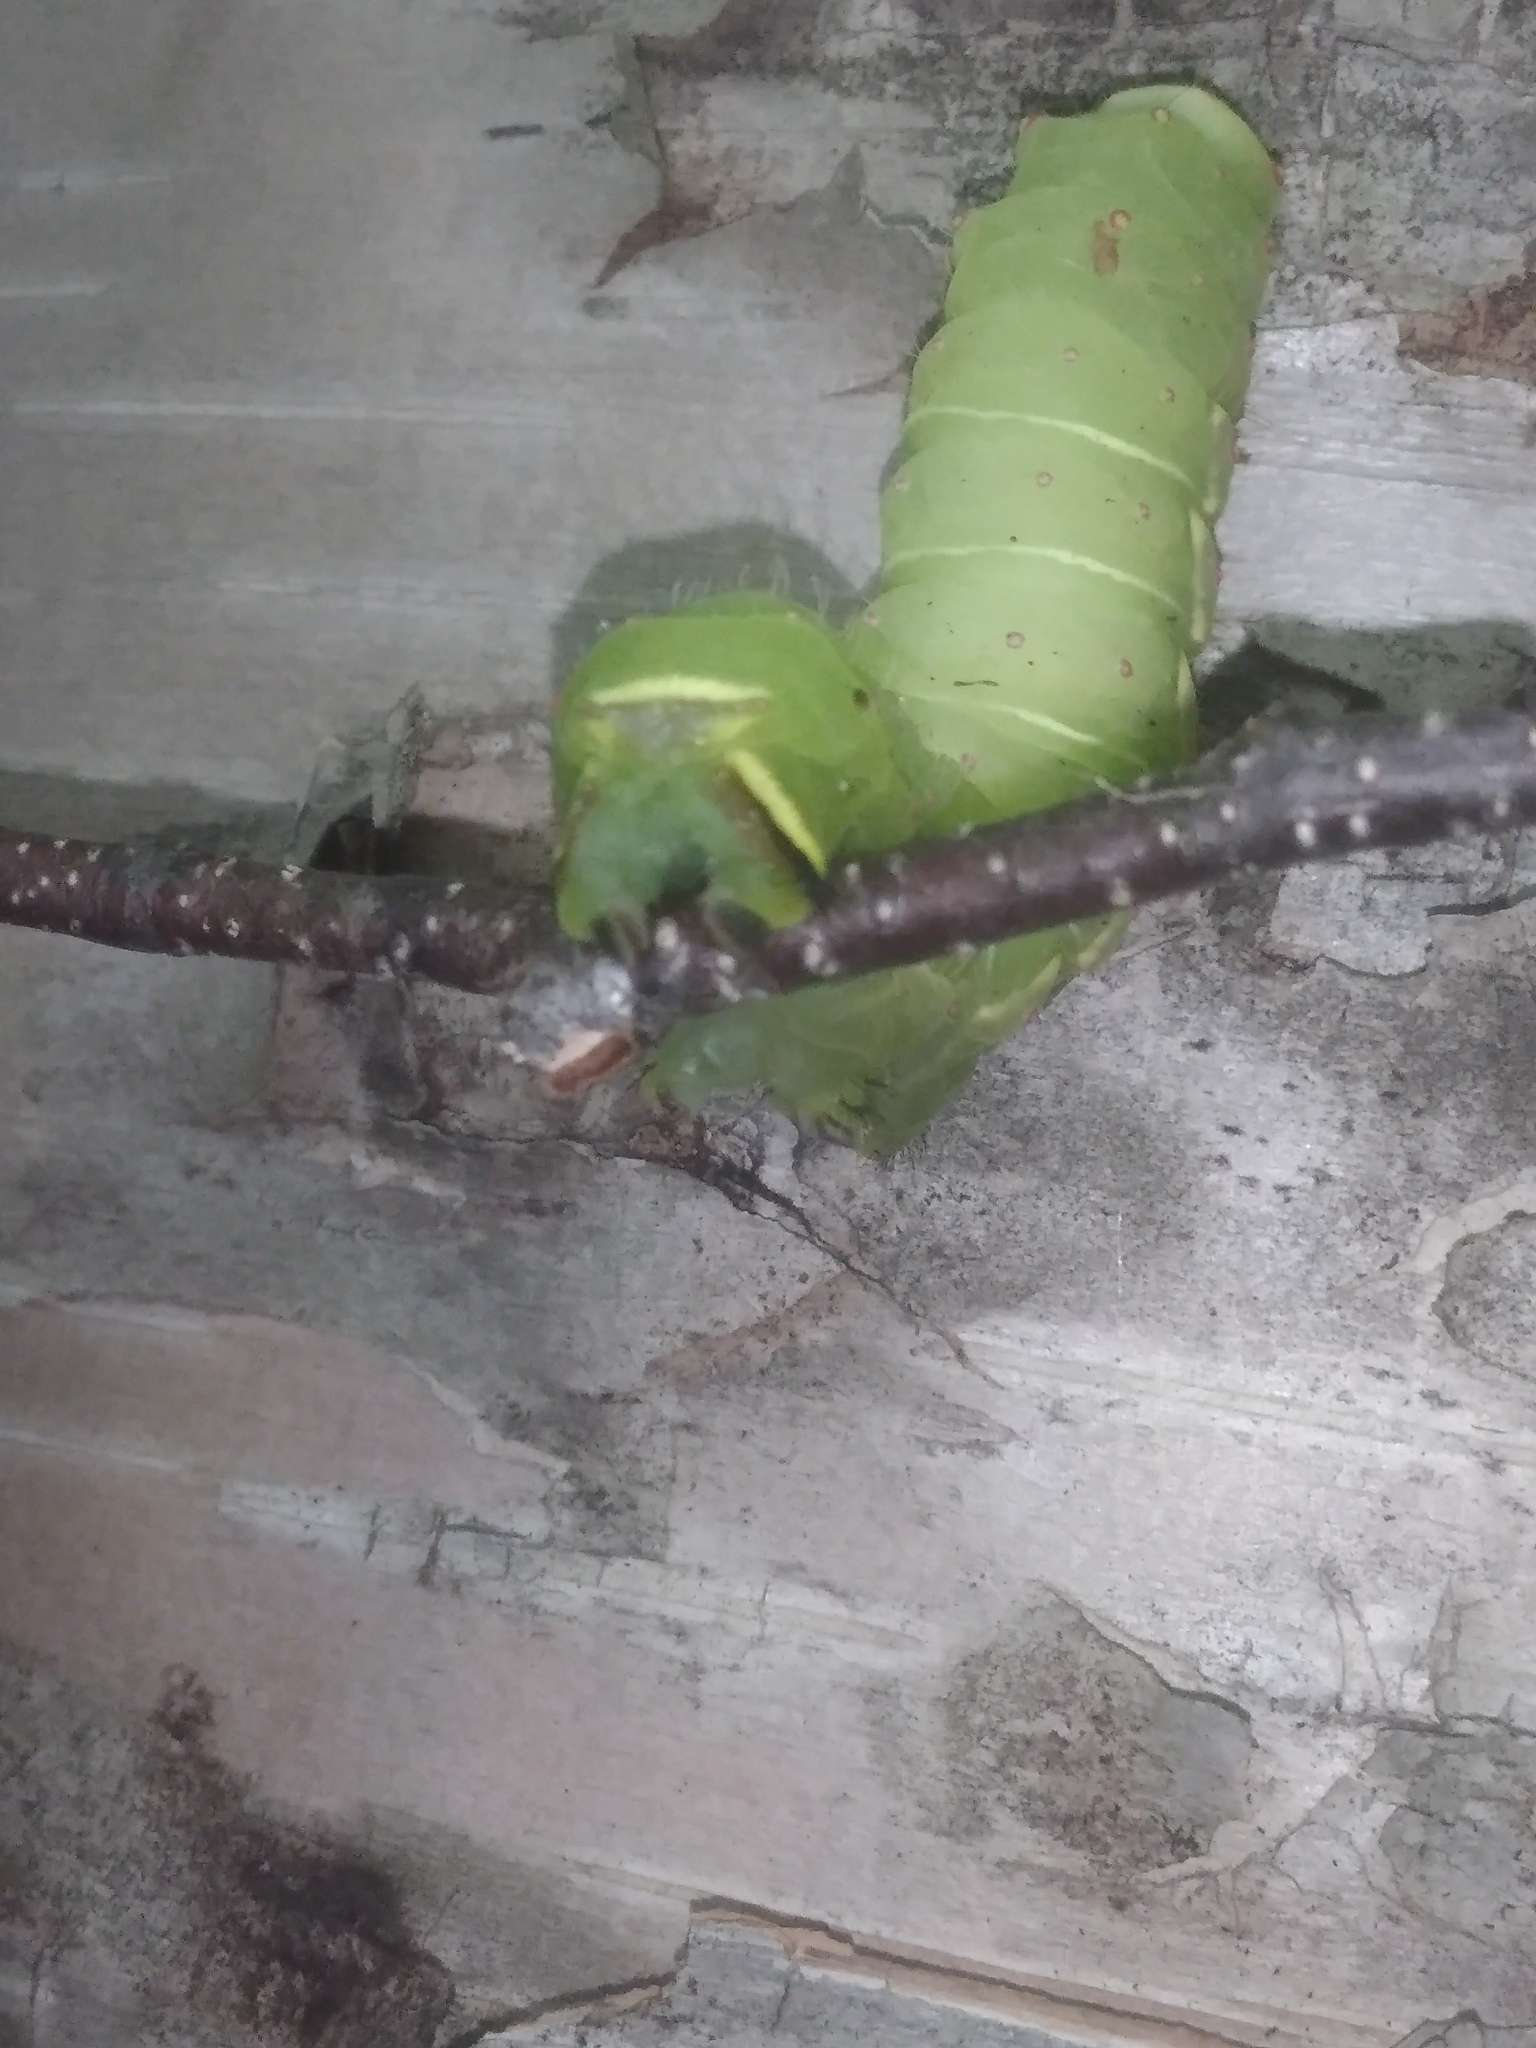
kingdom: Animalia
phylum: Arthropoda
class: Insecta
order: Lepidoptera
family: Saturniidae
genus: Actias
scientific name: Actias luna
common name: Luna moth
